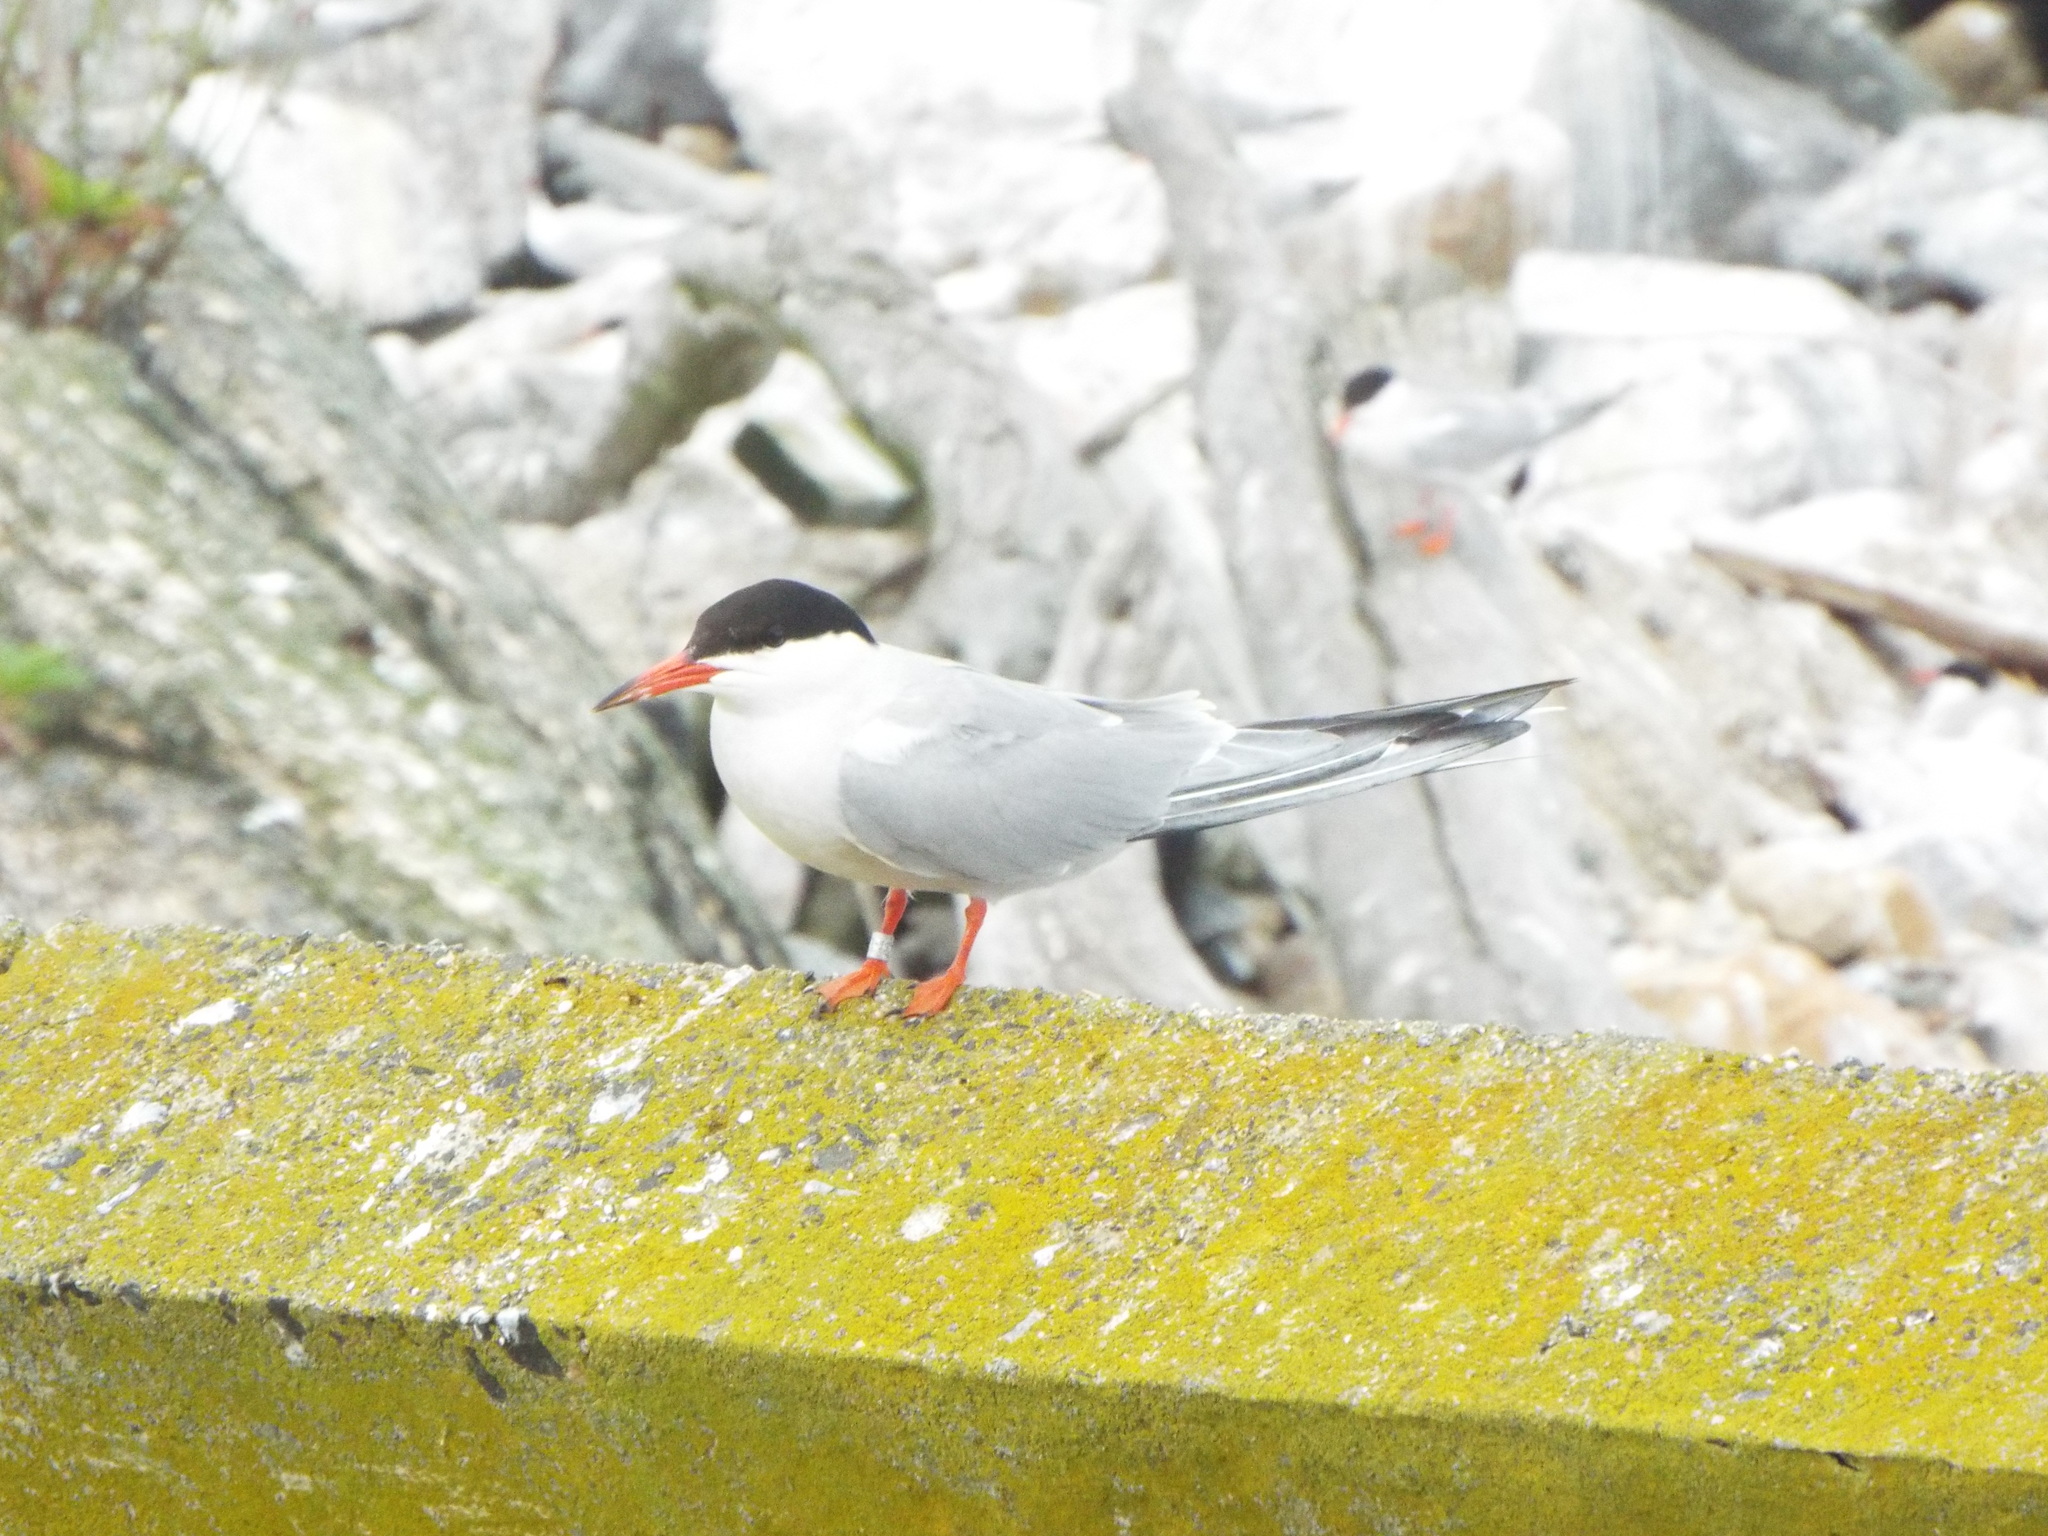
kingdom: Animalia
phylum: Chordata
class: Aves
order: Charadriiformes
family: Laridae
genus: Sterna
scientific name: Sterna hirundo
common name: Common tern
